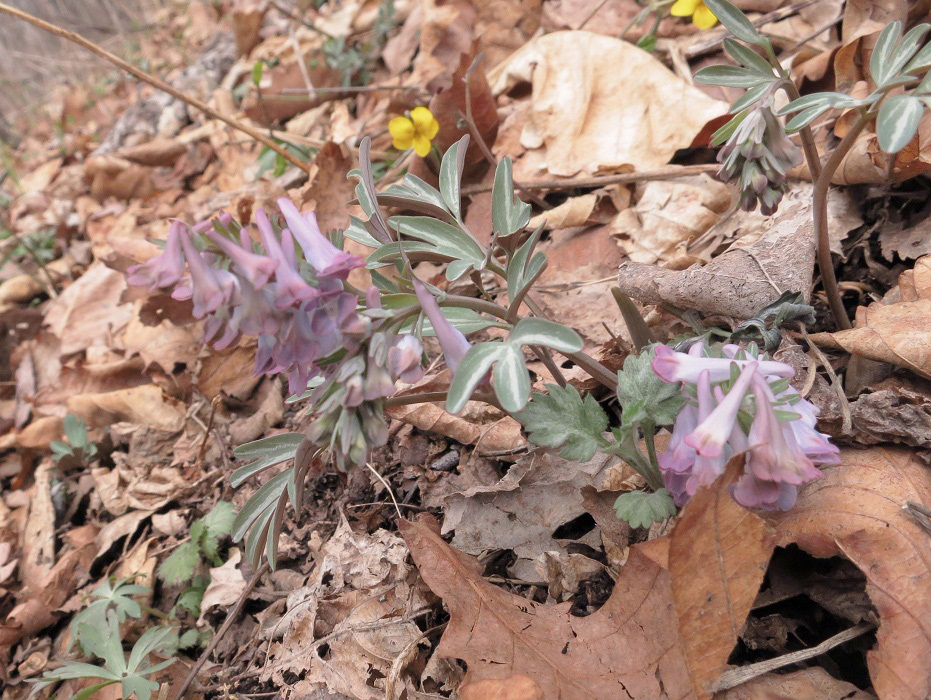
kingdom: Plantae
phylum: Tracheophyta
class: Magnoliopsida
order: Ranunculales
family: Papaveraceae
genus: Corydalis
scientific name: Corydalis turtschaninovii
